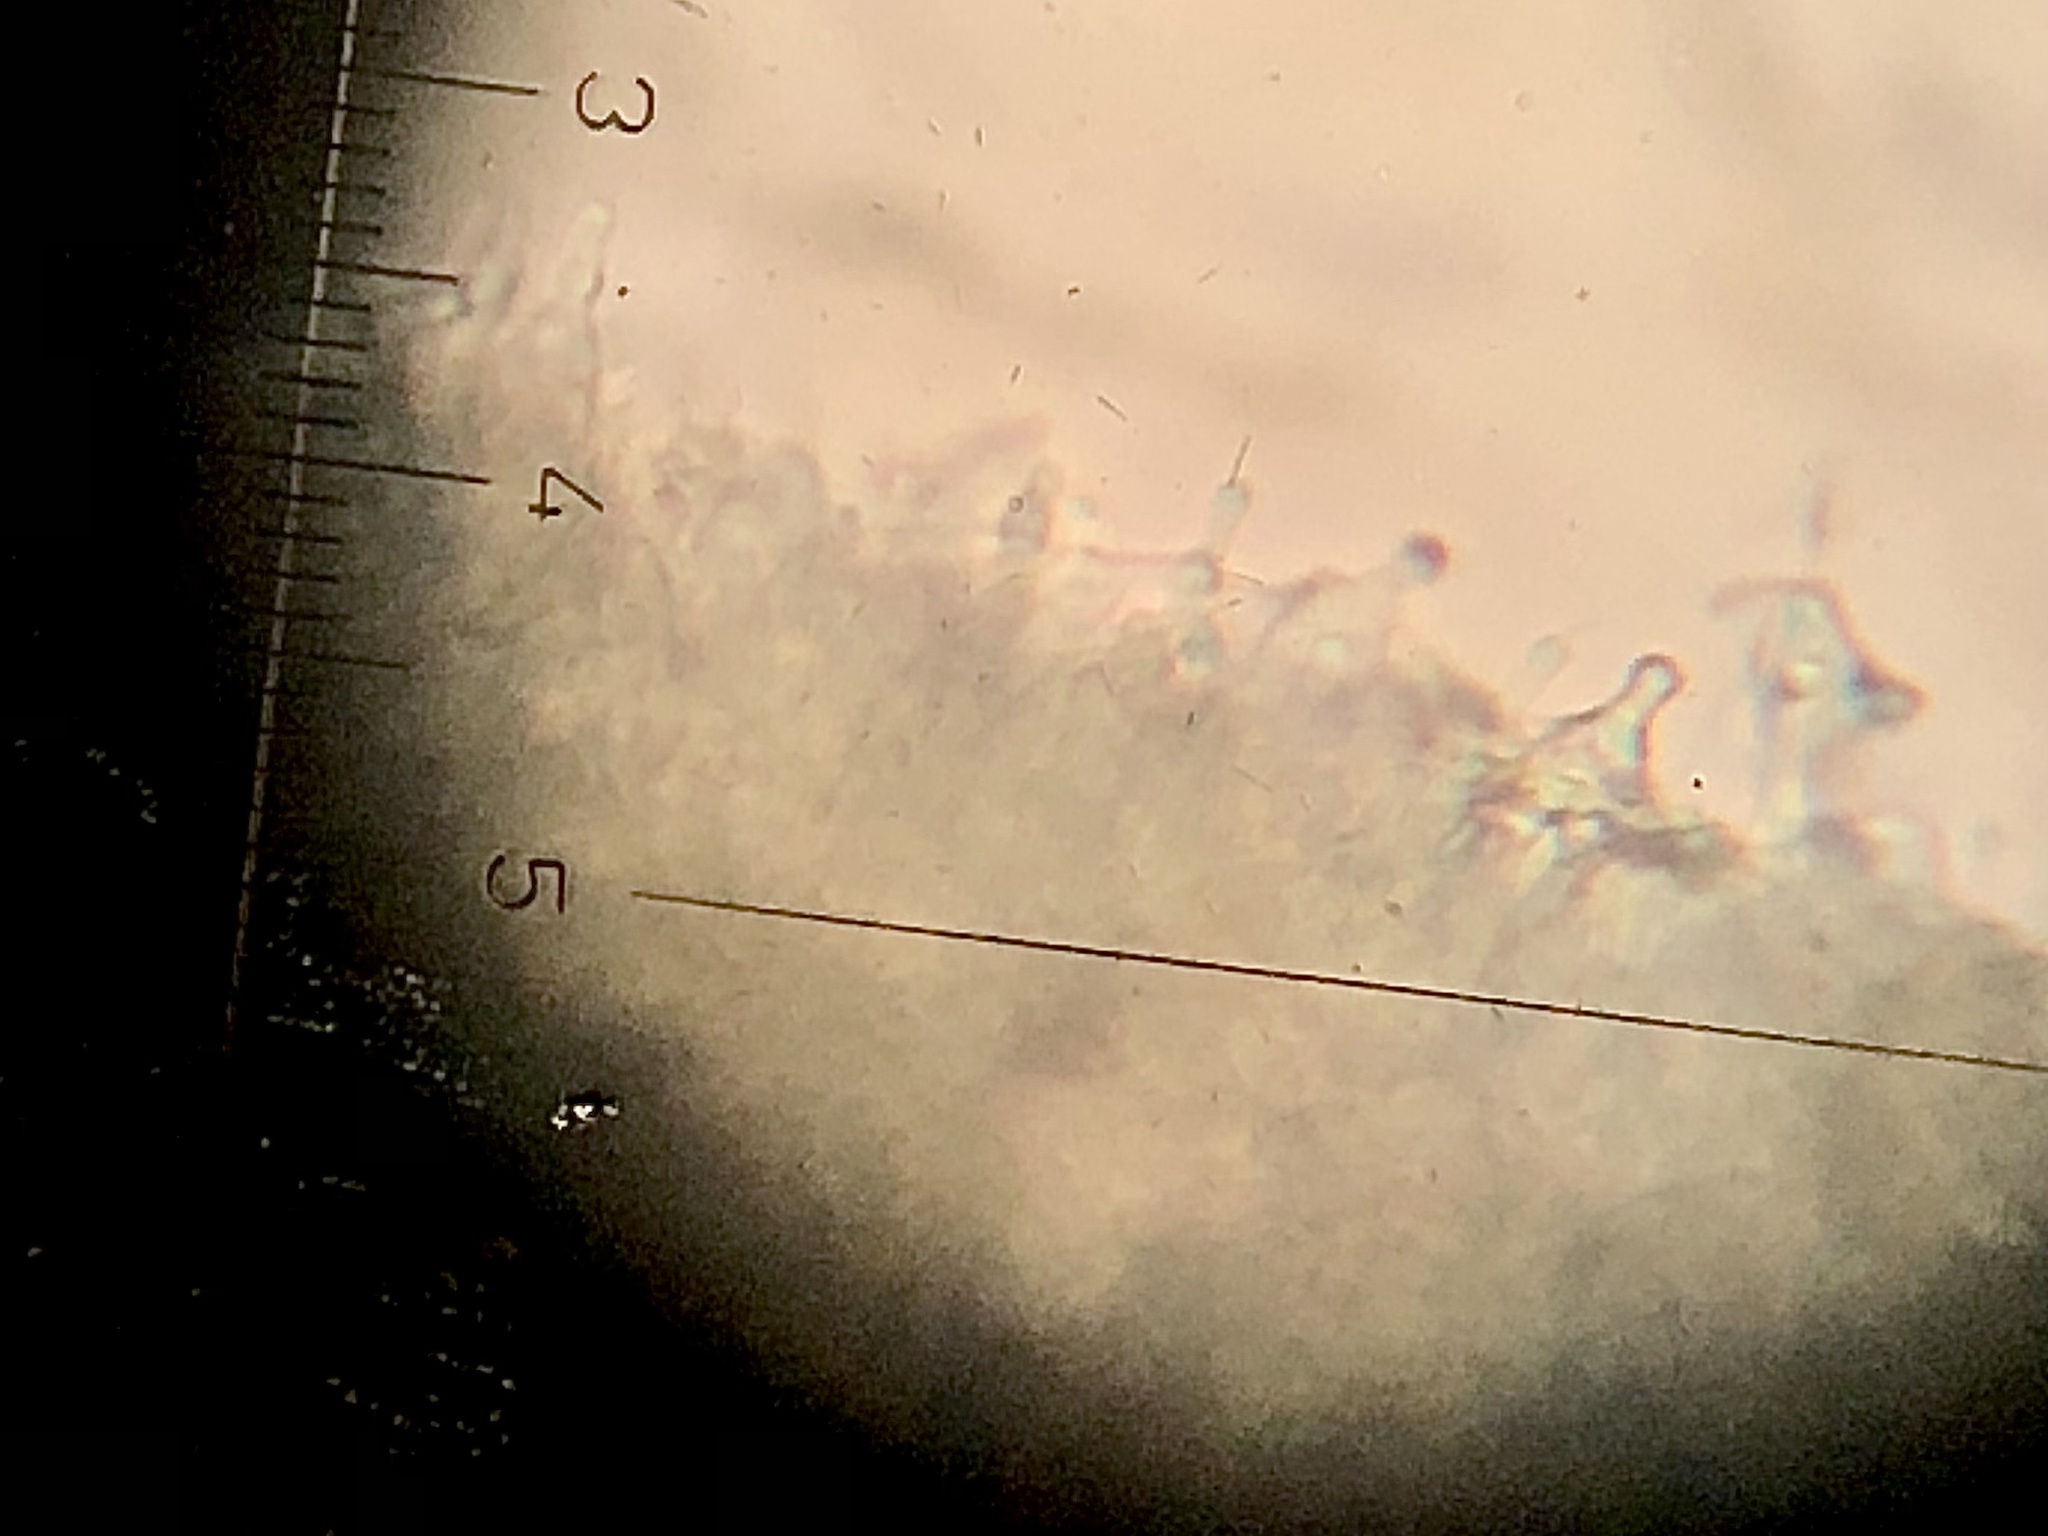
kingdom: Fungi
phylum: Basidiomycota
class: Agaricomycetes
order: Agaricales
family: Hymenogastraceae
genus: Psilocybe
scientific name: Psilocybe subaeruginosa
